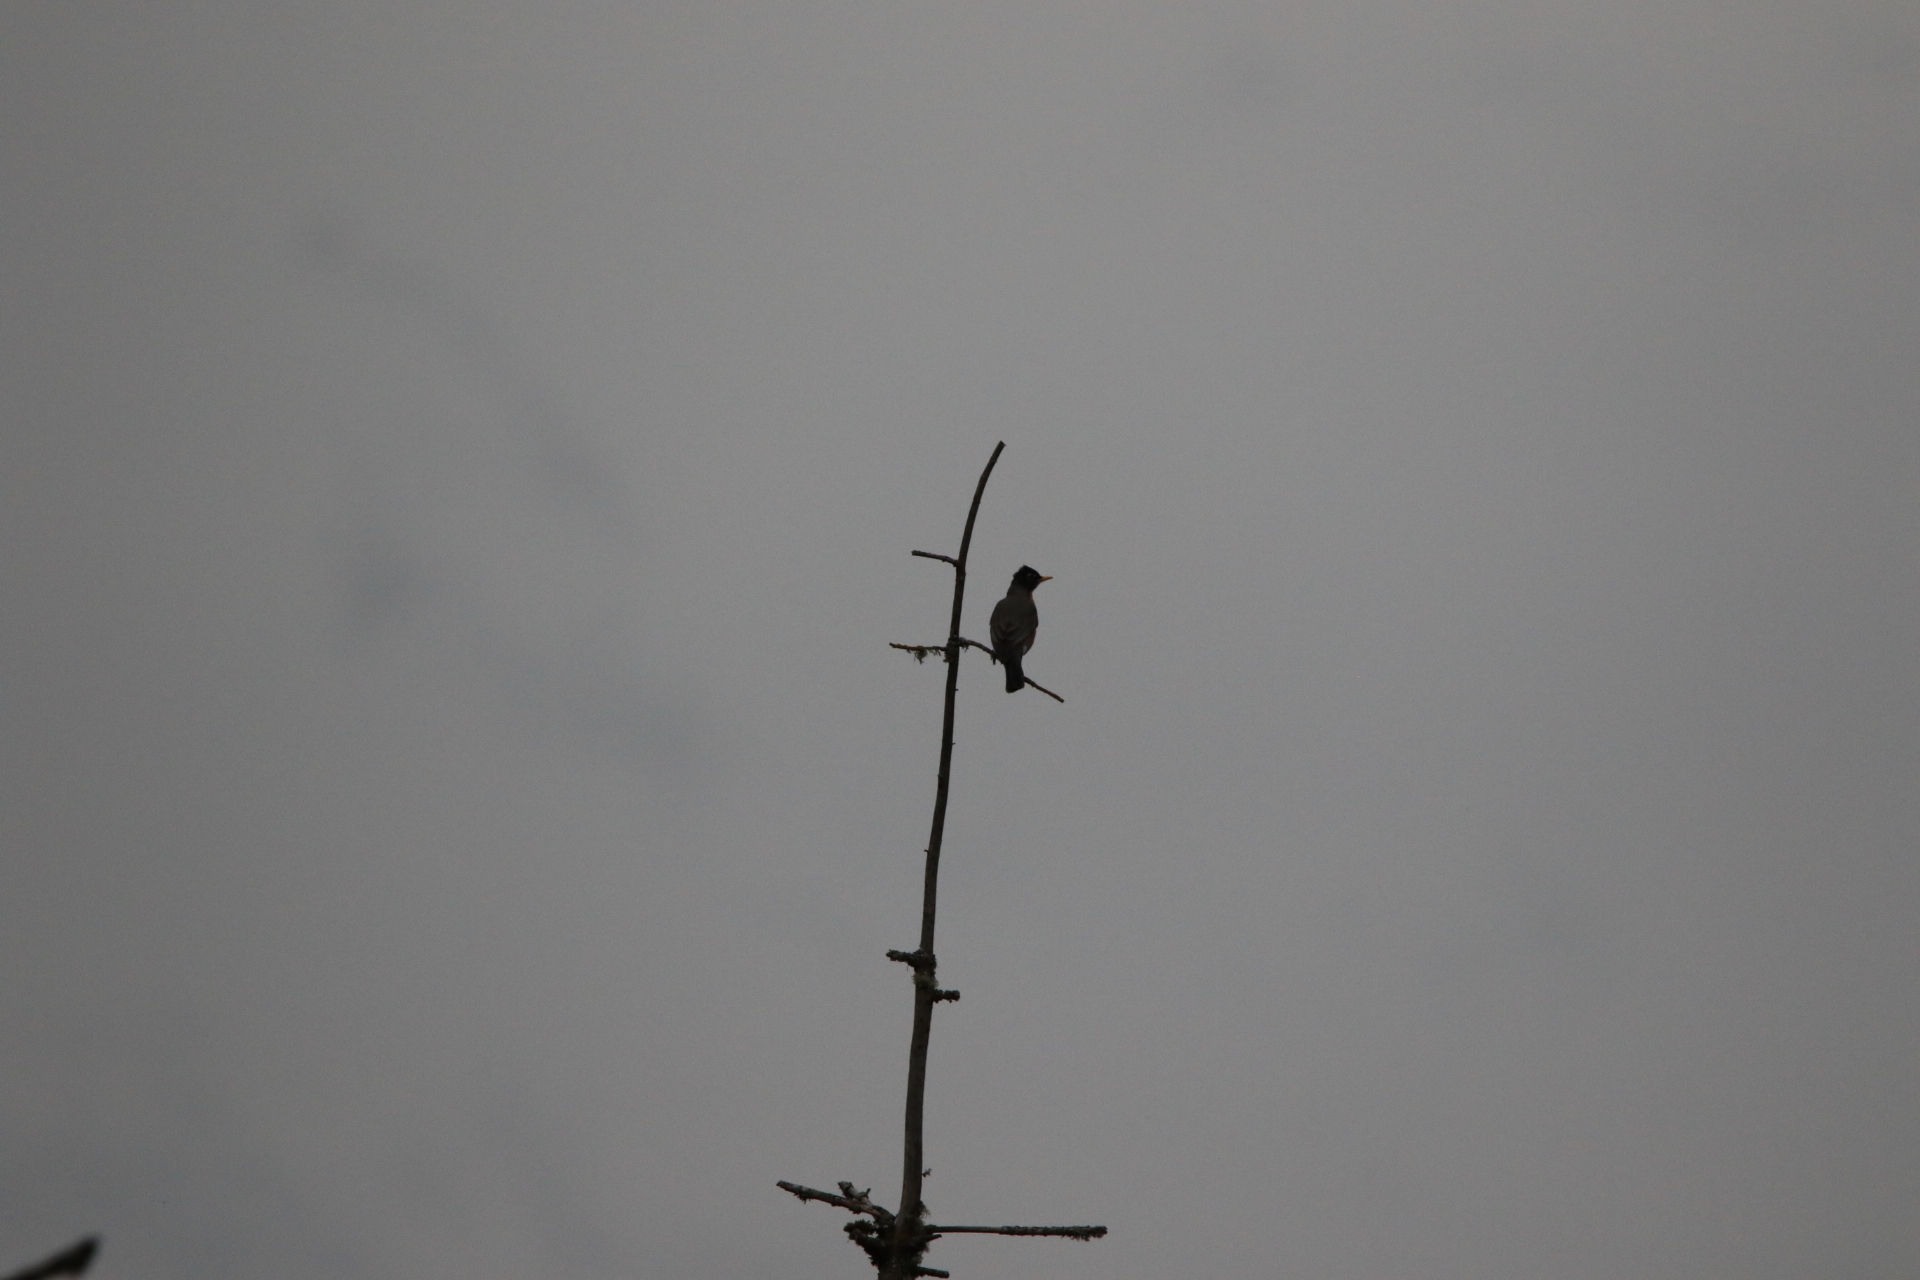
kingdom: Animalia
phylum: Chordata
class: Aves
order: Passeriformes
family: Turdidae
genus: Turdus
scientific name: Turdus migratorius
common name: American robin
